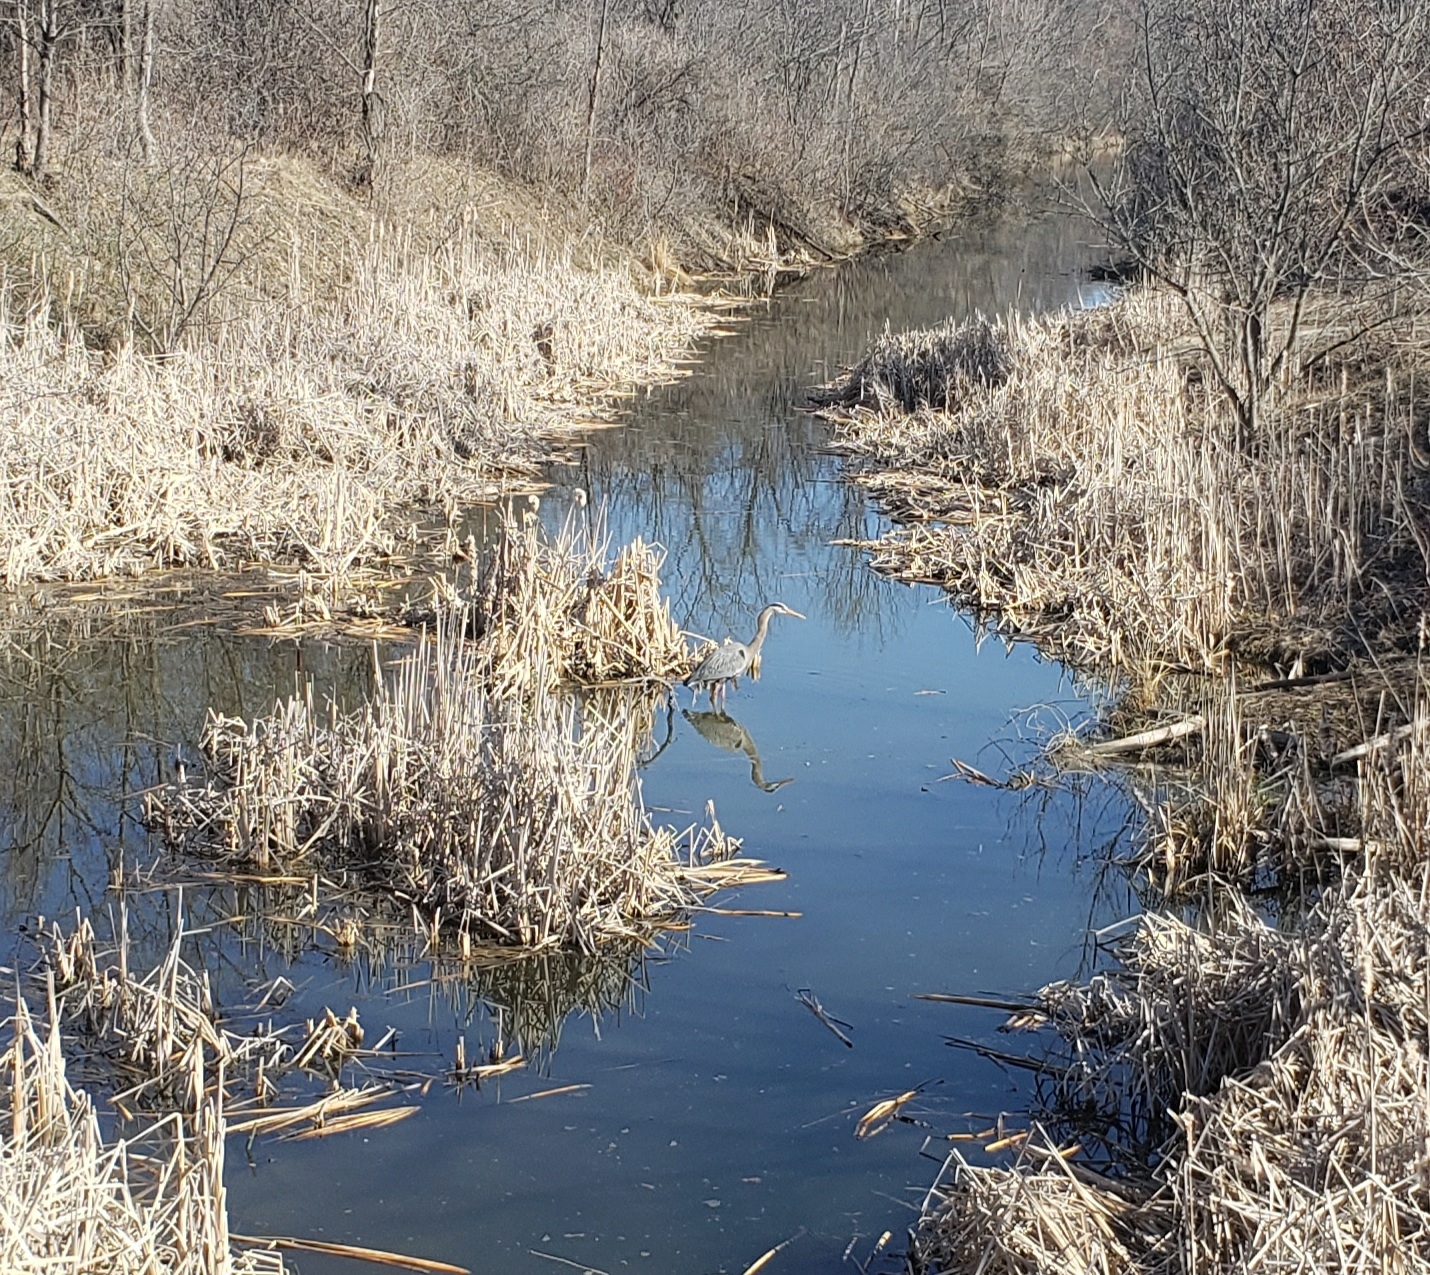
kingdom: Animalia
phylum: Chordata
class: Aves
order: Pelecaniformes
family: Ardeidae
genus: Ardea
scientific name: Ardea herodias
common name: Great blue heron
